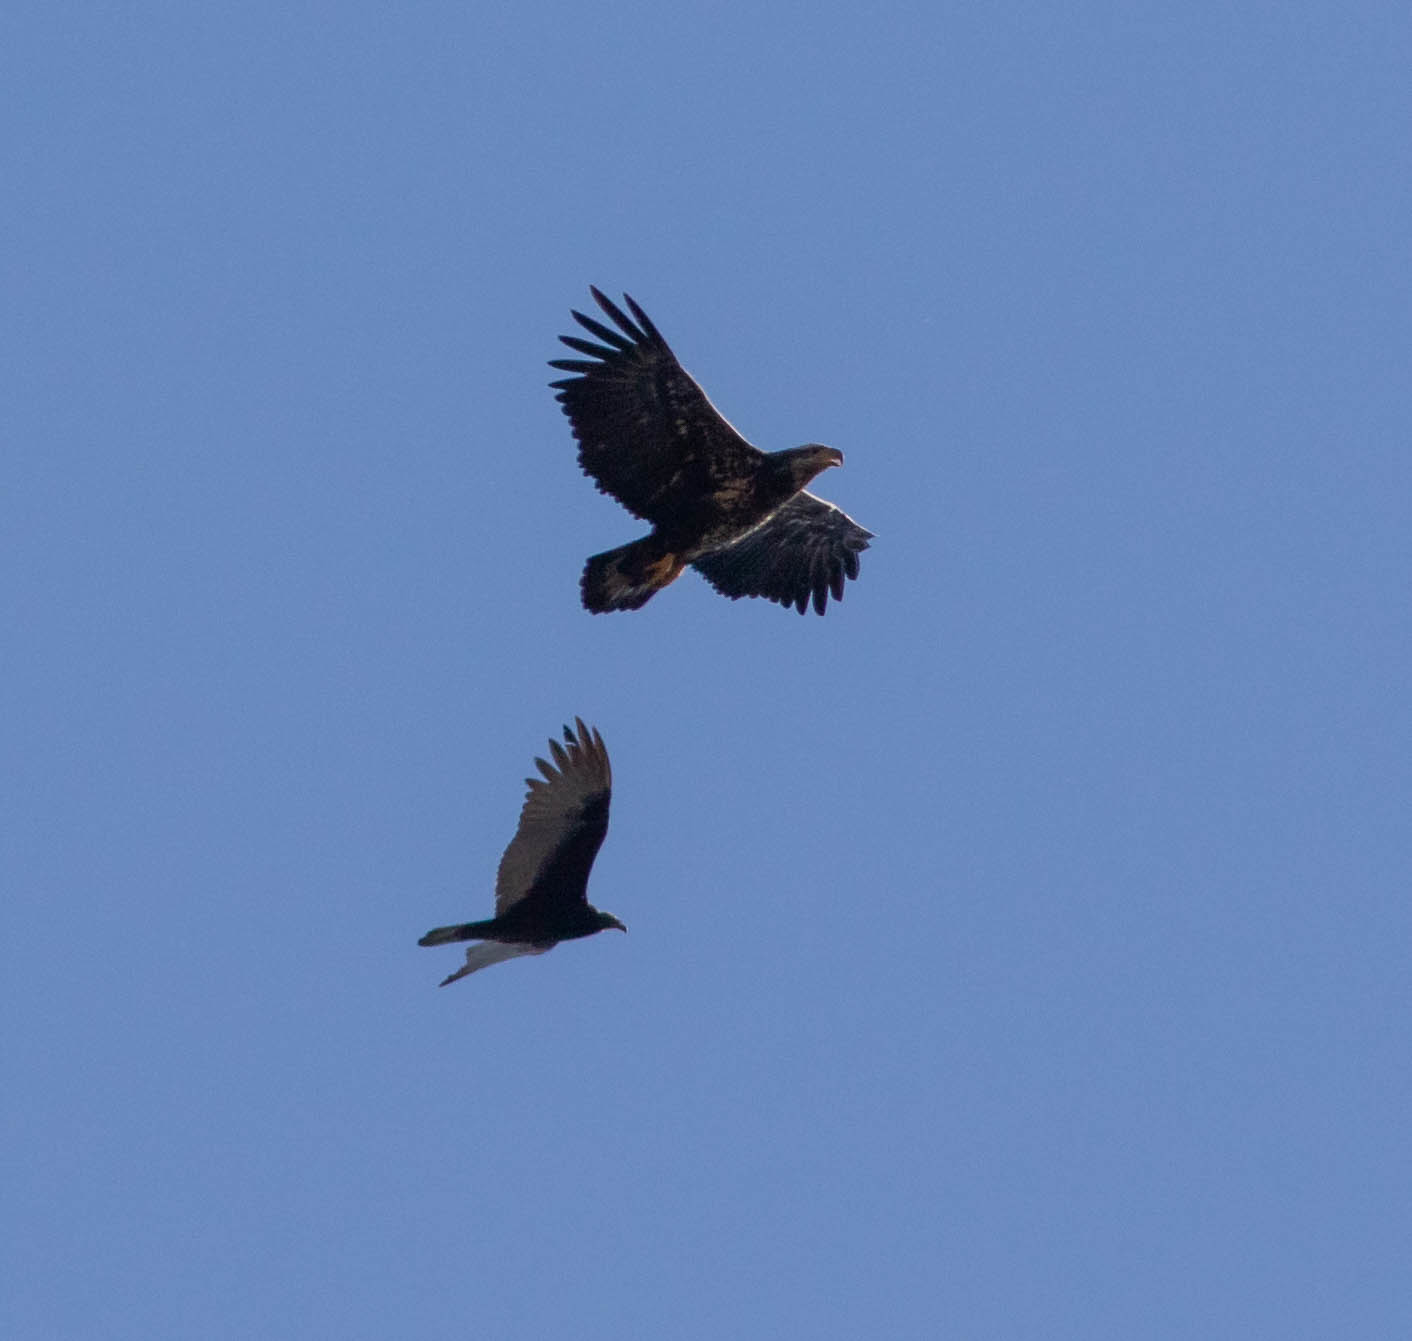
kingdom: Animalia
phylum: Chordata
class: Aves
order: Accipitriformes
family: Accipitridae
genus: Haliaeetus
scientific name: Haliaeetus leucocephalus
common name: Bald eagle
